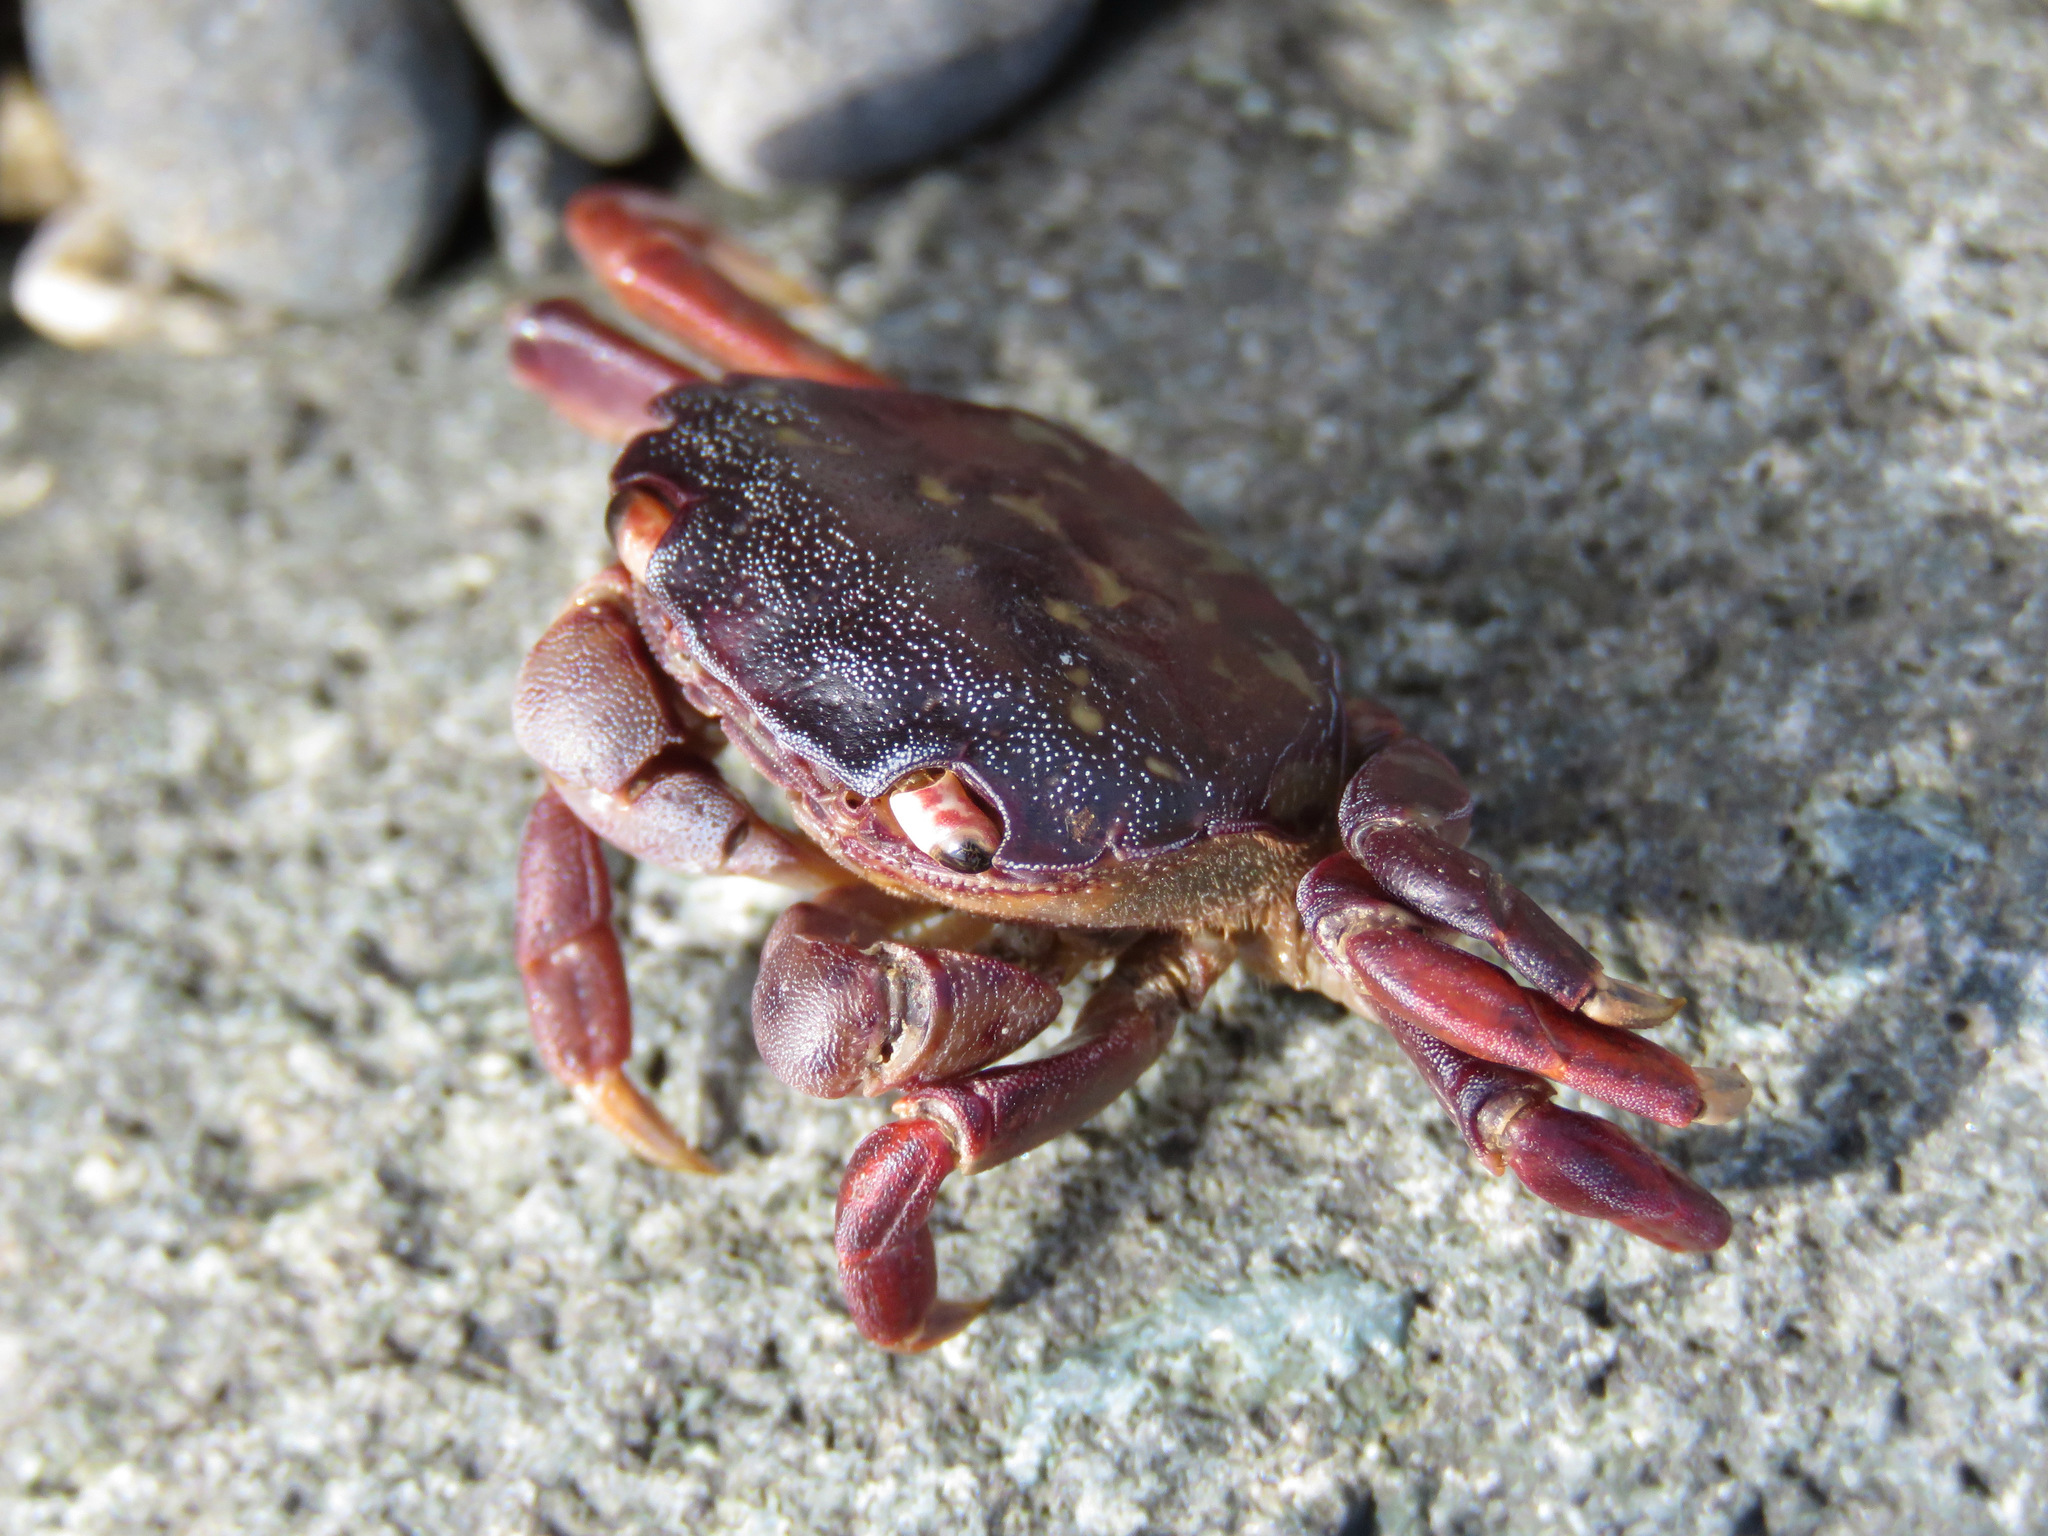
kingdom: Animalia
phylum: Arthropoda
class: Malacostraca
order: Decapoda
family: Varunidae
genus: Hemigrapsus
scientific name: Hemigrapsus nudus
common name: Purple shore crab
